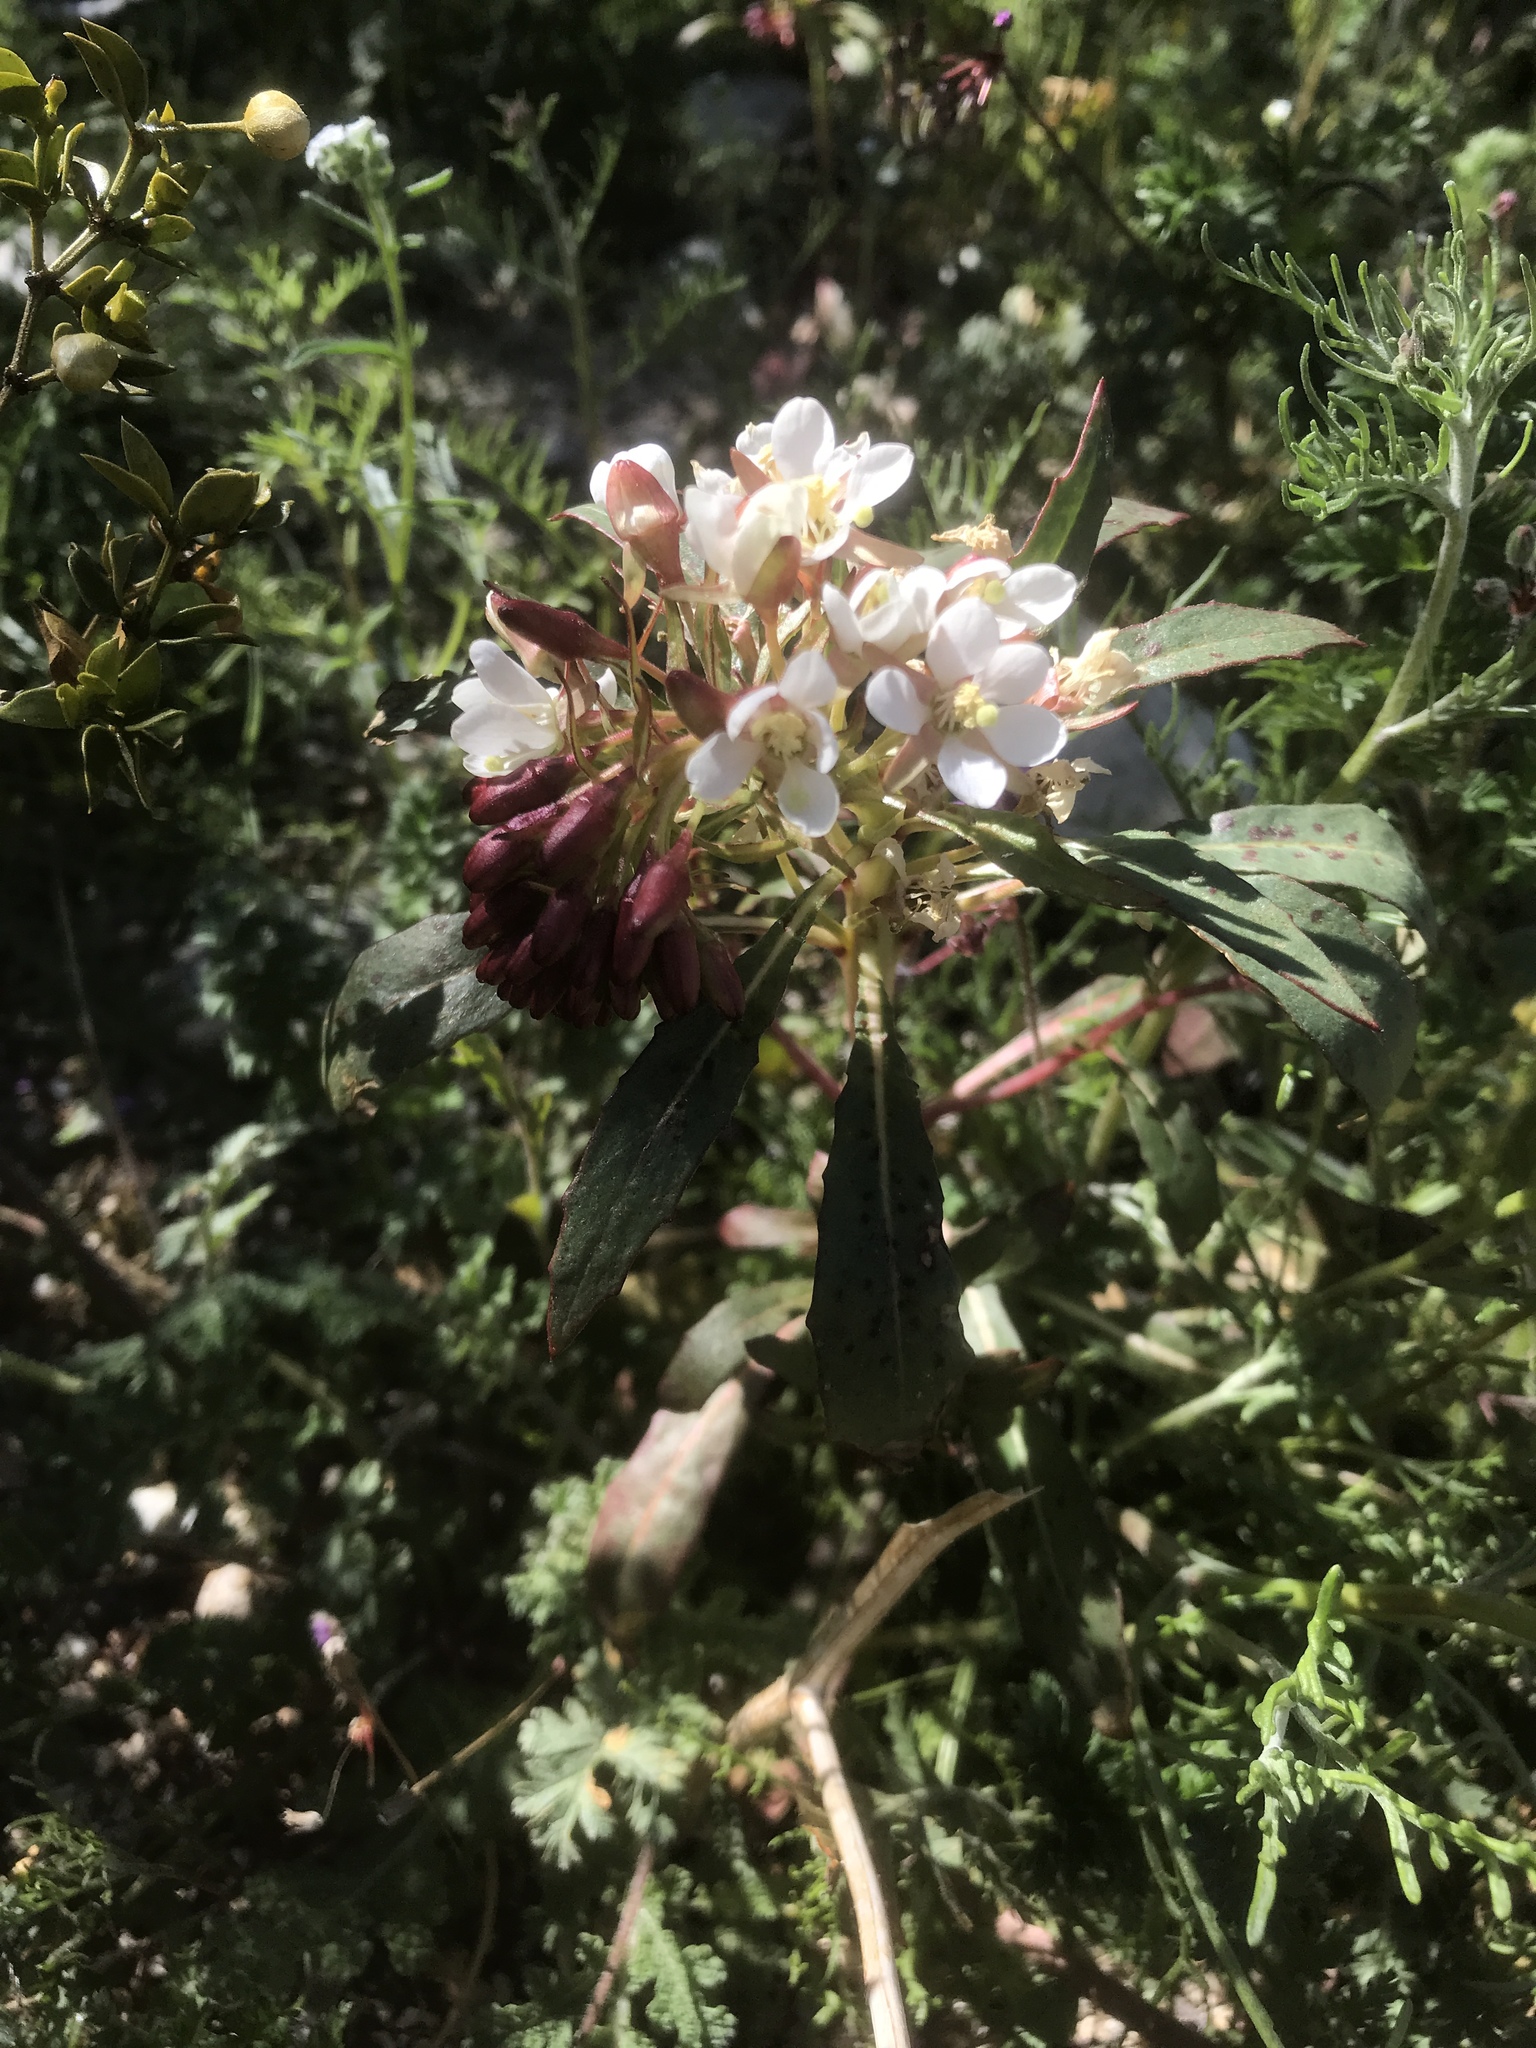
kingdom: Plantae
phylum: Tracheophyta
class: Magnoliopsida
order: Myrtales
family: Onagraceae
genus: Eremothera
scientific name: Eremothera boothii
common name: Booth's evening primrose
